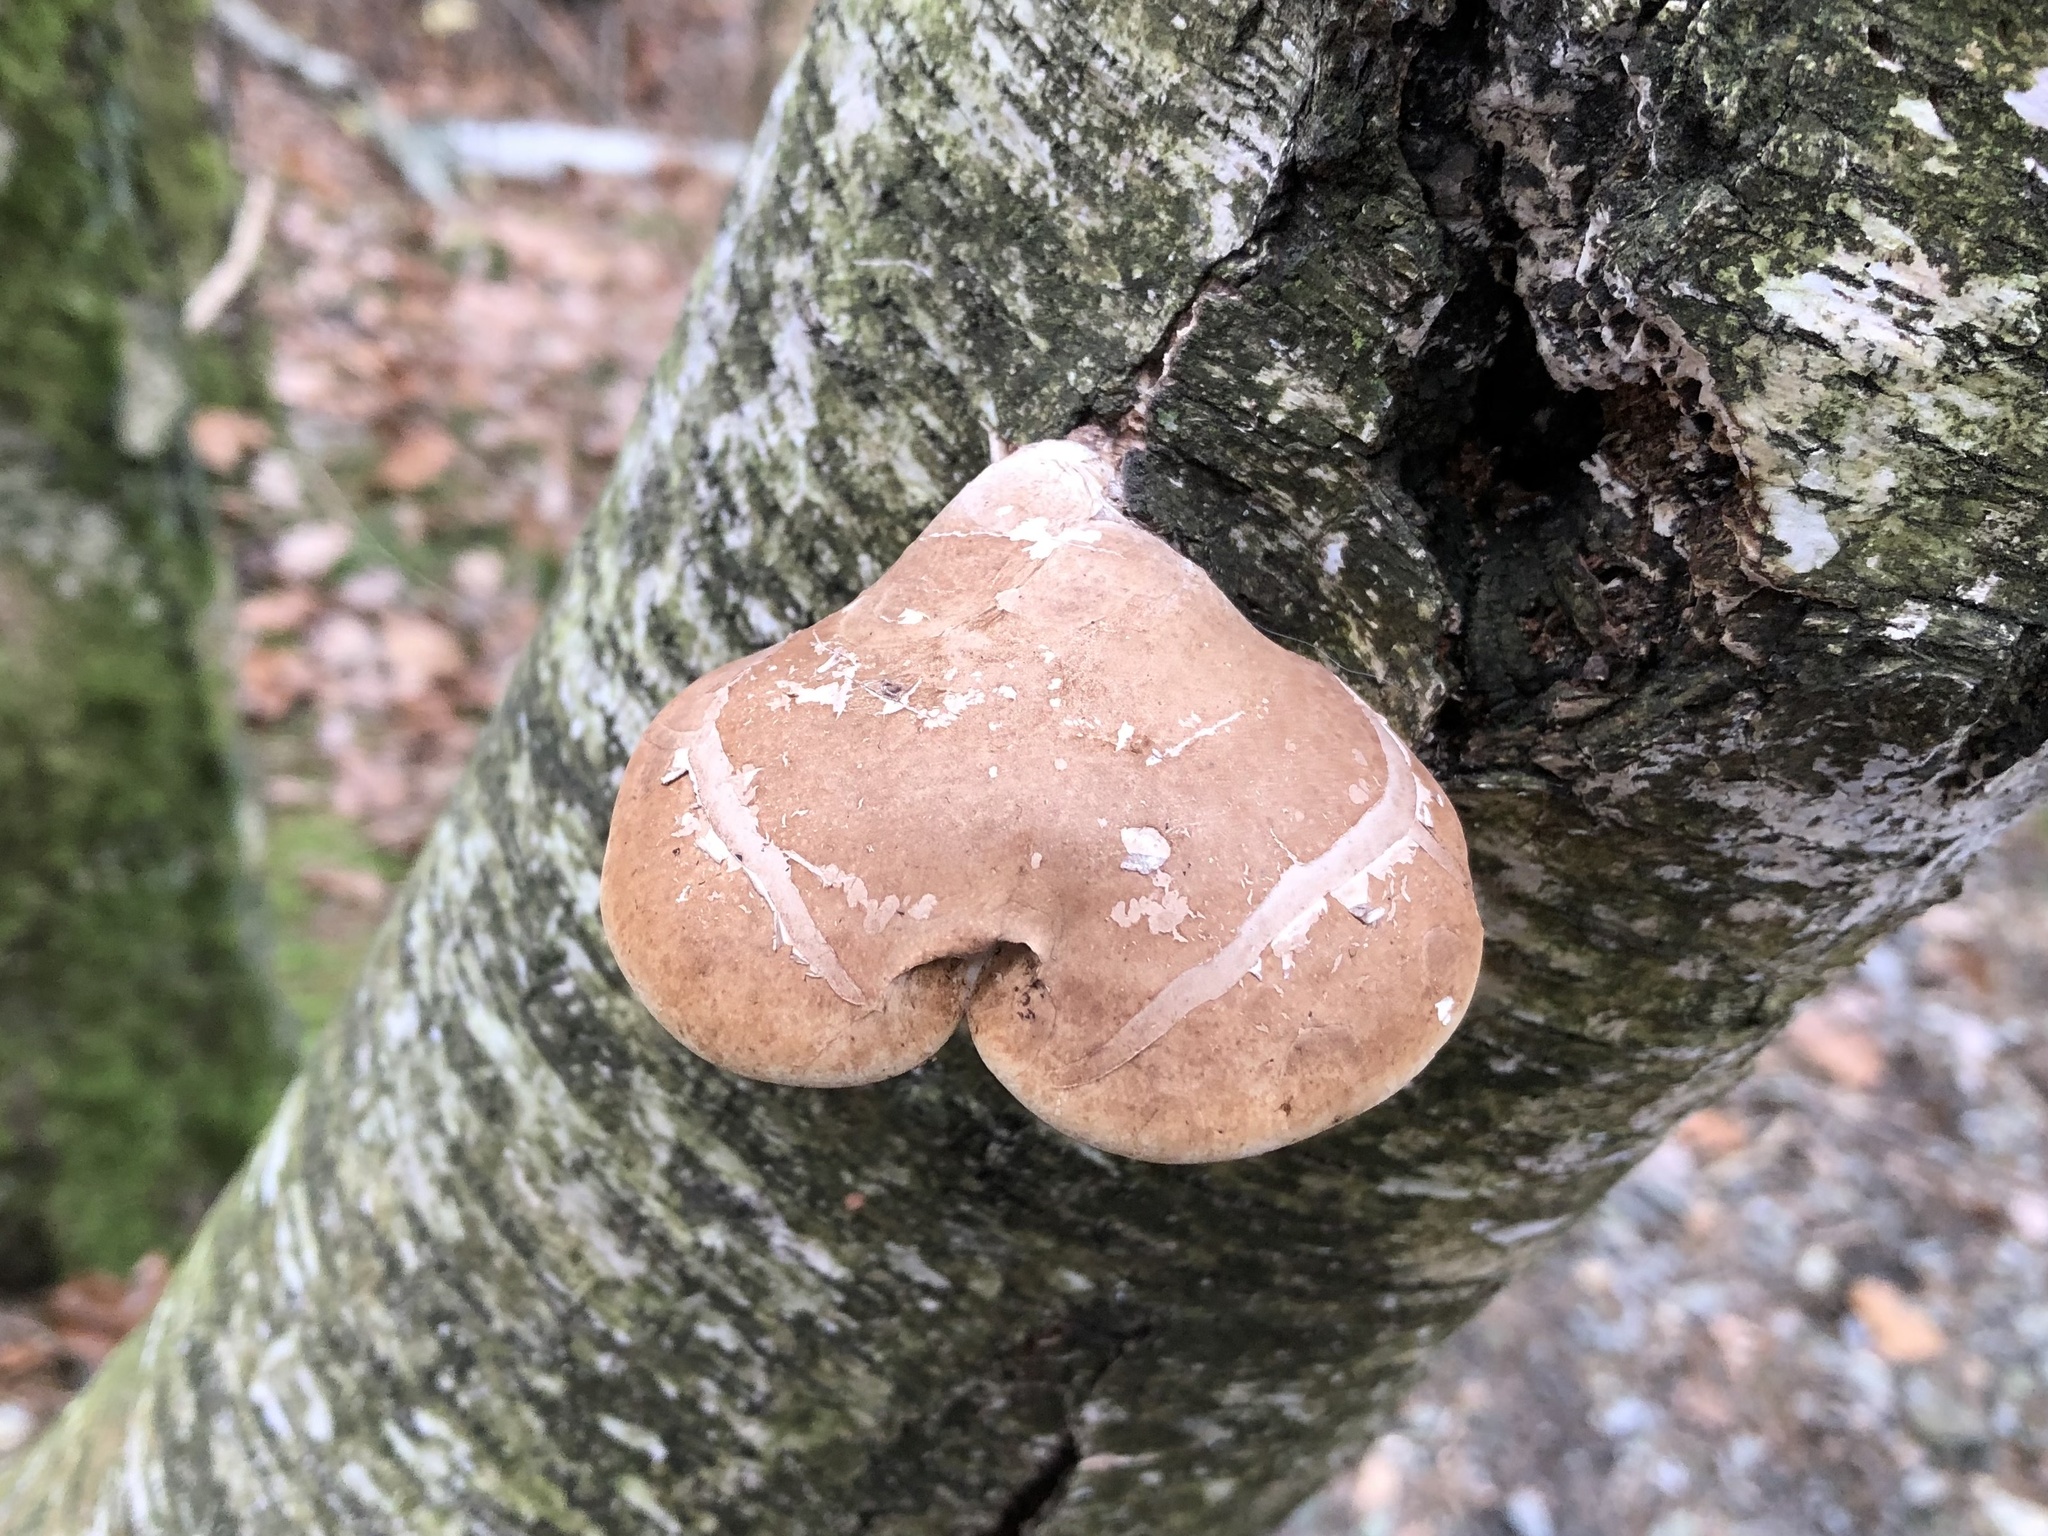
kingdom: Fungi
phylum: Basidiomycota
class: Agaricomycetes
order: Polyporales
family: Fomitopsidaceae
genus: Fomitopsis
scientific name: Fomitopsis betulina
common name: Birch polypore
